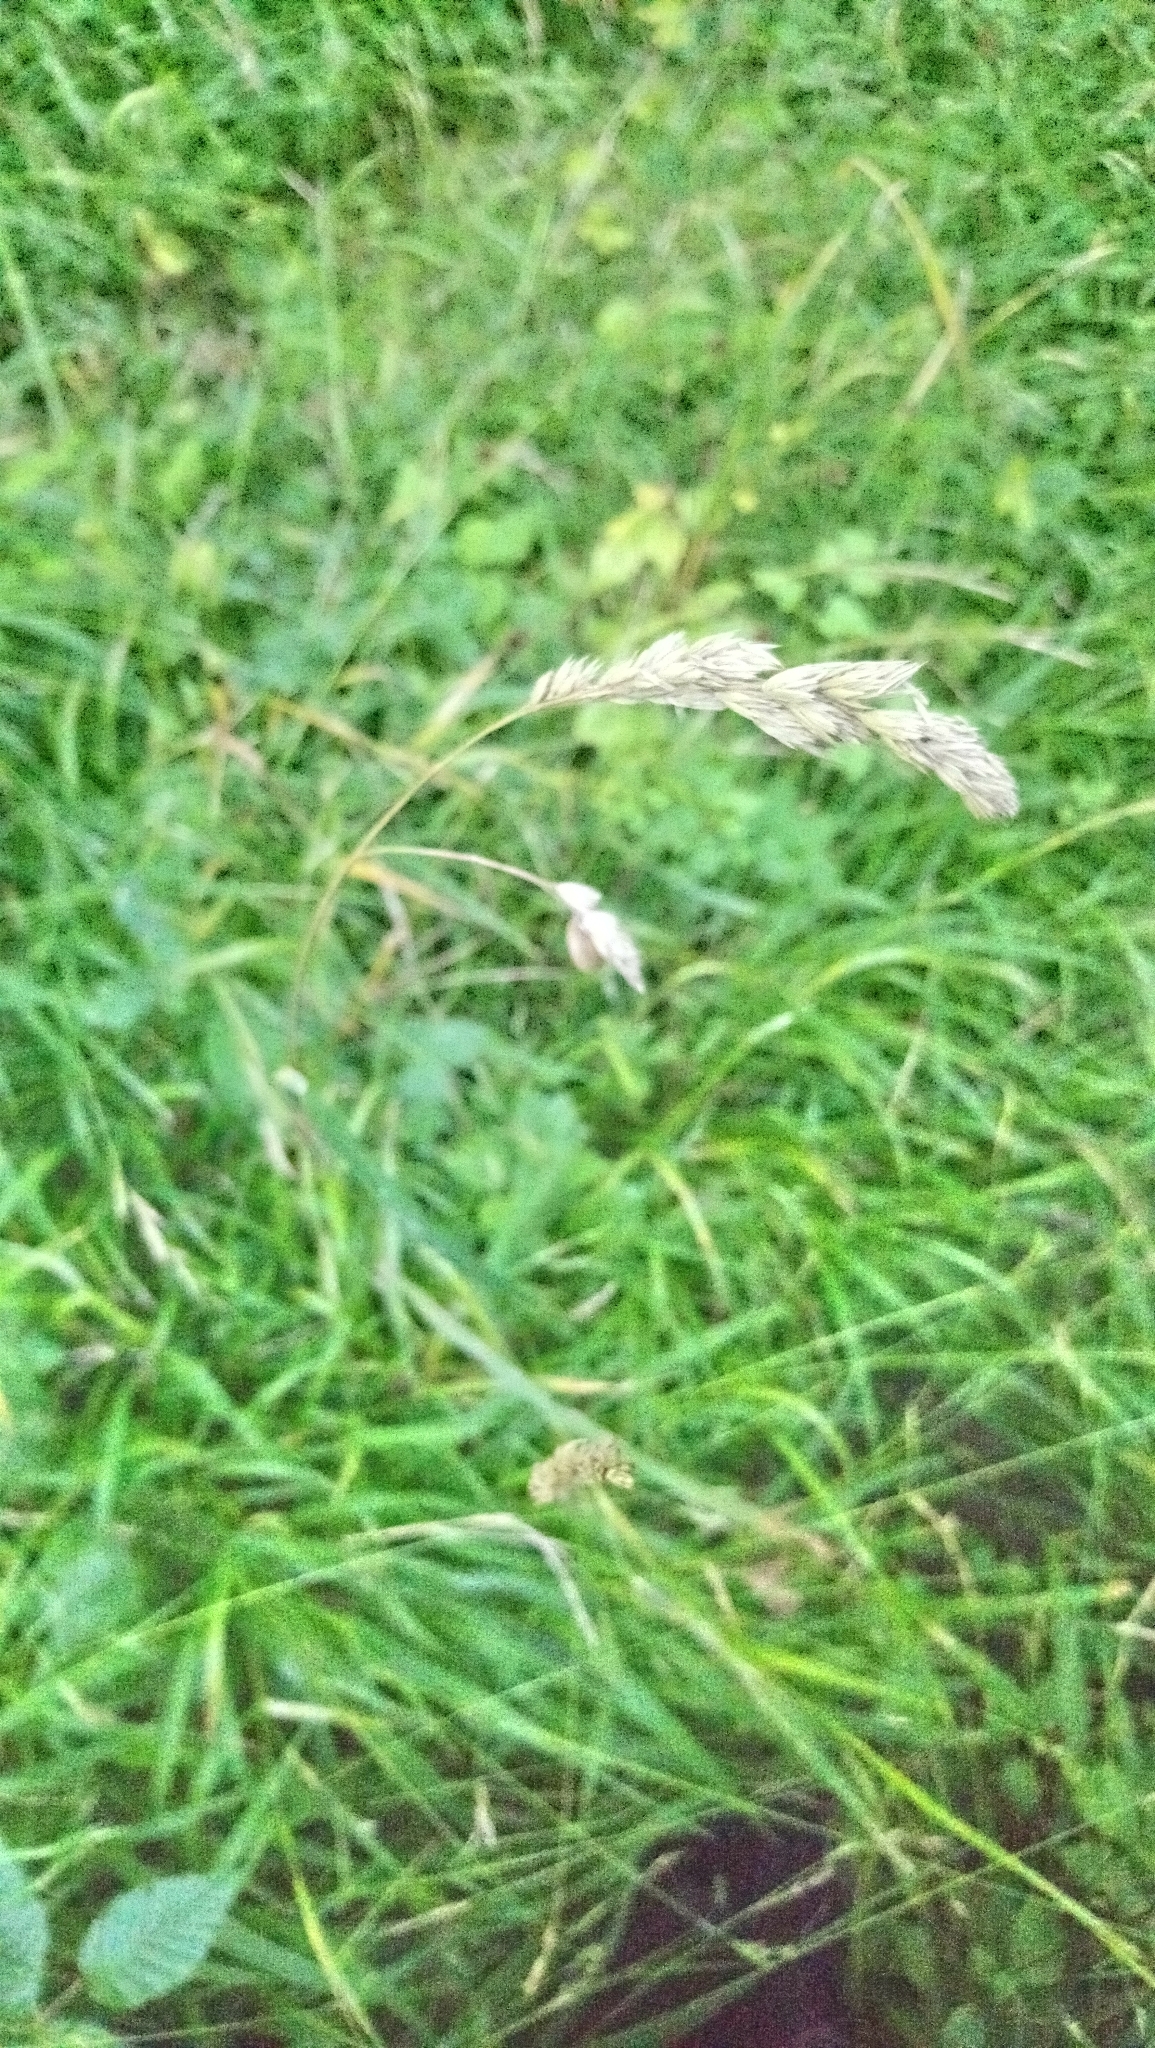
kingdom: Plantae
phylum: Tracheophyta
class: Liliopsida
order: Poales
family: Poaceae
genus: Dactylis
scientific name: Dactylis glomerata
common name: Orchardgrass
